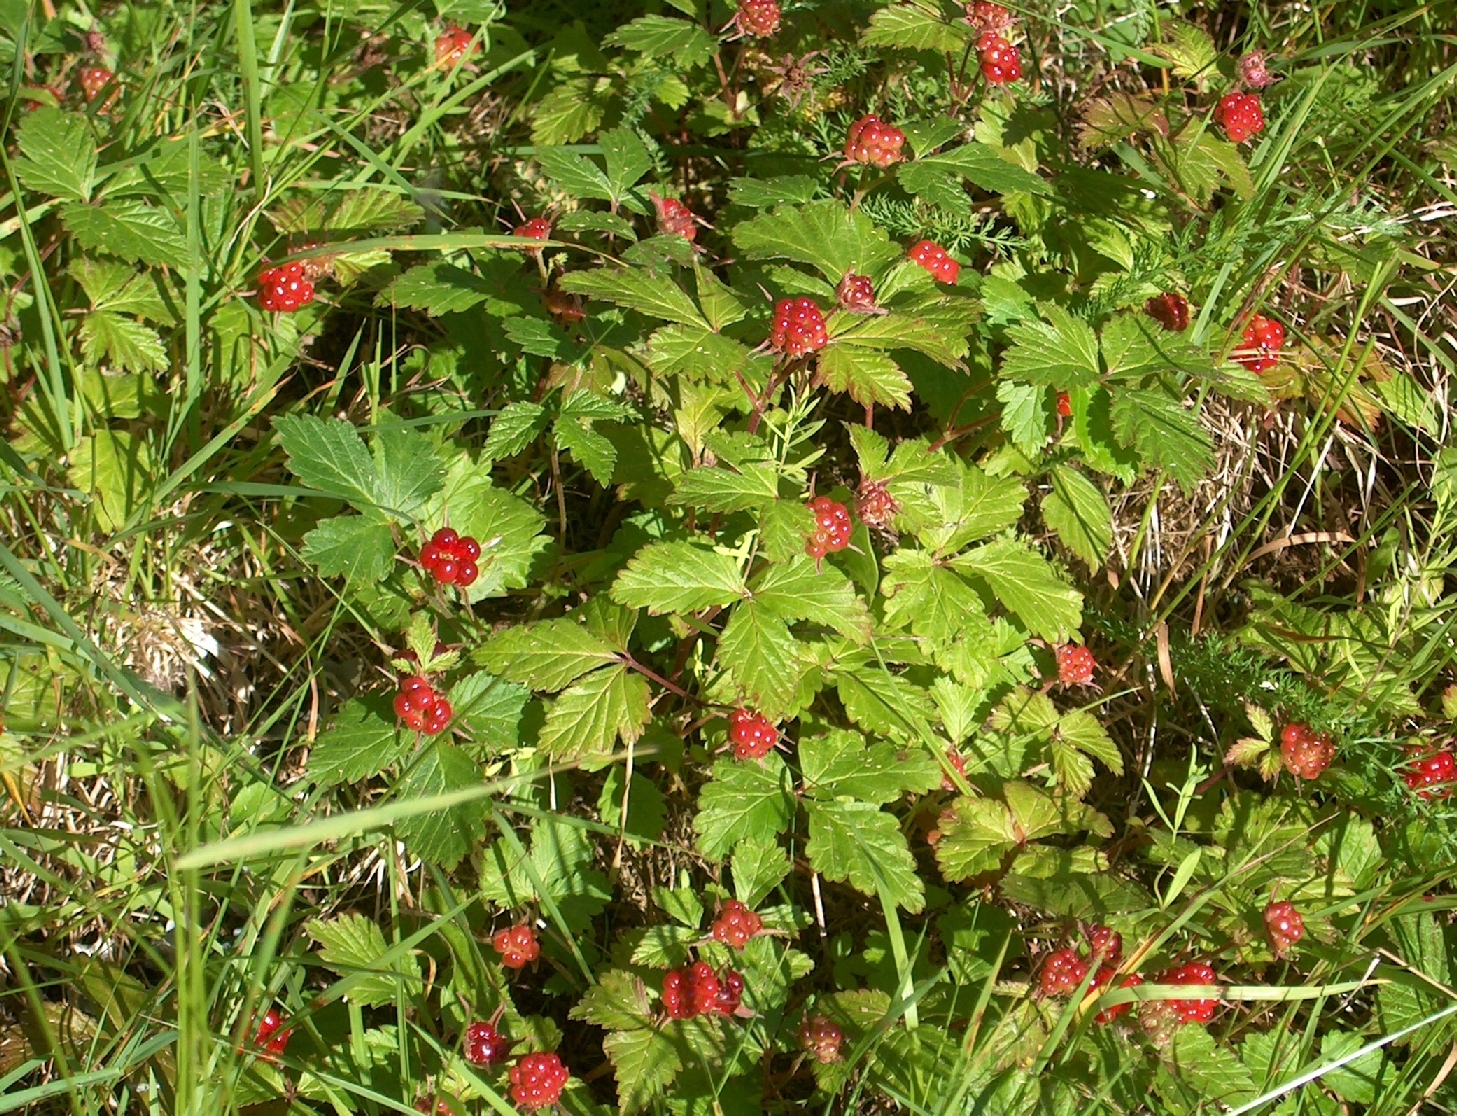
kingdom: Plantae
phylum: Tracheophyta
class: Magnoliopsida
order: Rosales
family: Rosaceae
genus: Rubus
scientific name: Rubus arcticus
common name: Arctic bramble
